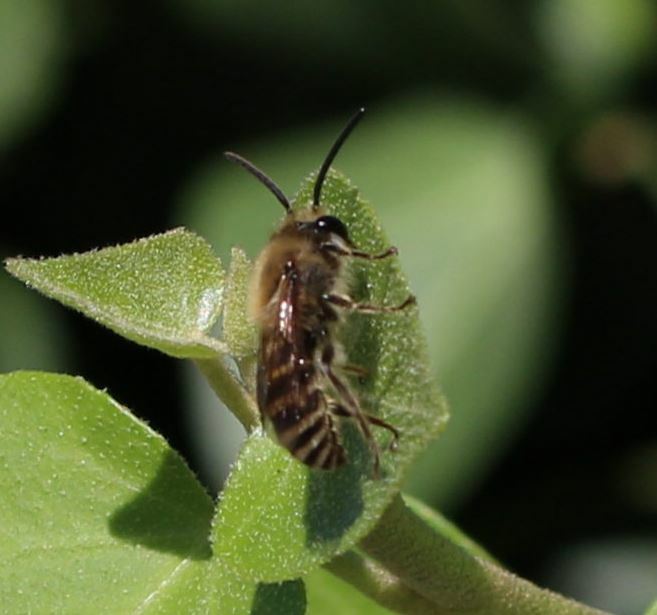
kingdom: Animalia
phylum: Arthropoda
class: Insecta
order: Hymenoptera
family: Colletidae
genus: Colletes
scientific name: Colletes hederae
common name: Ivy bee
